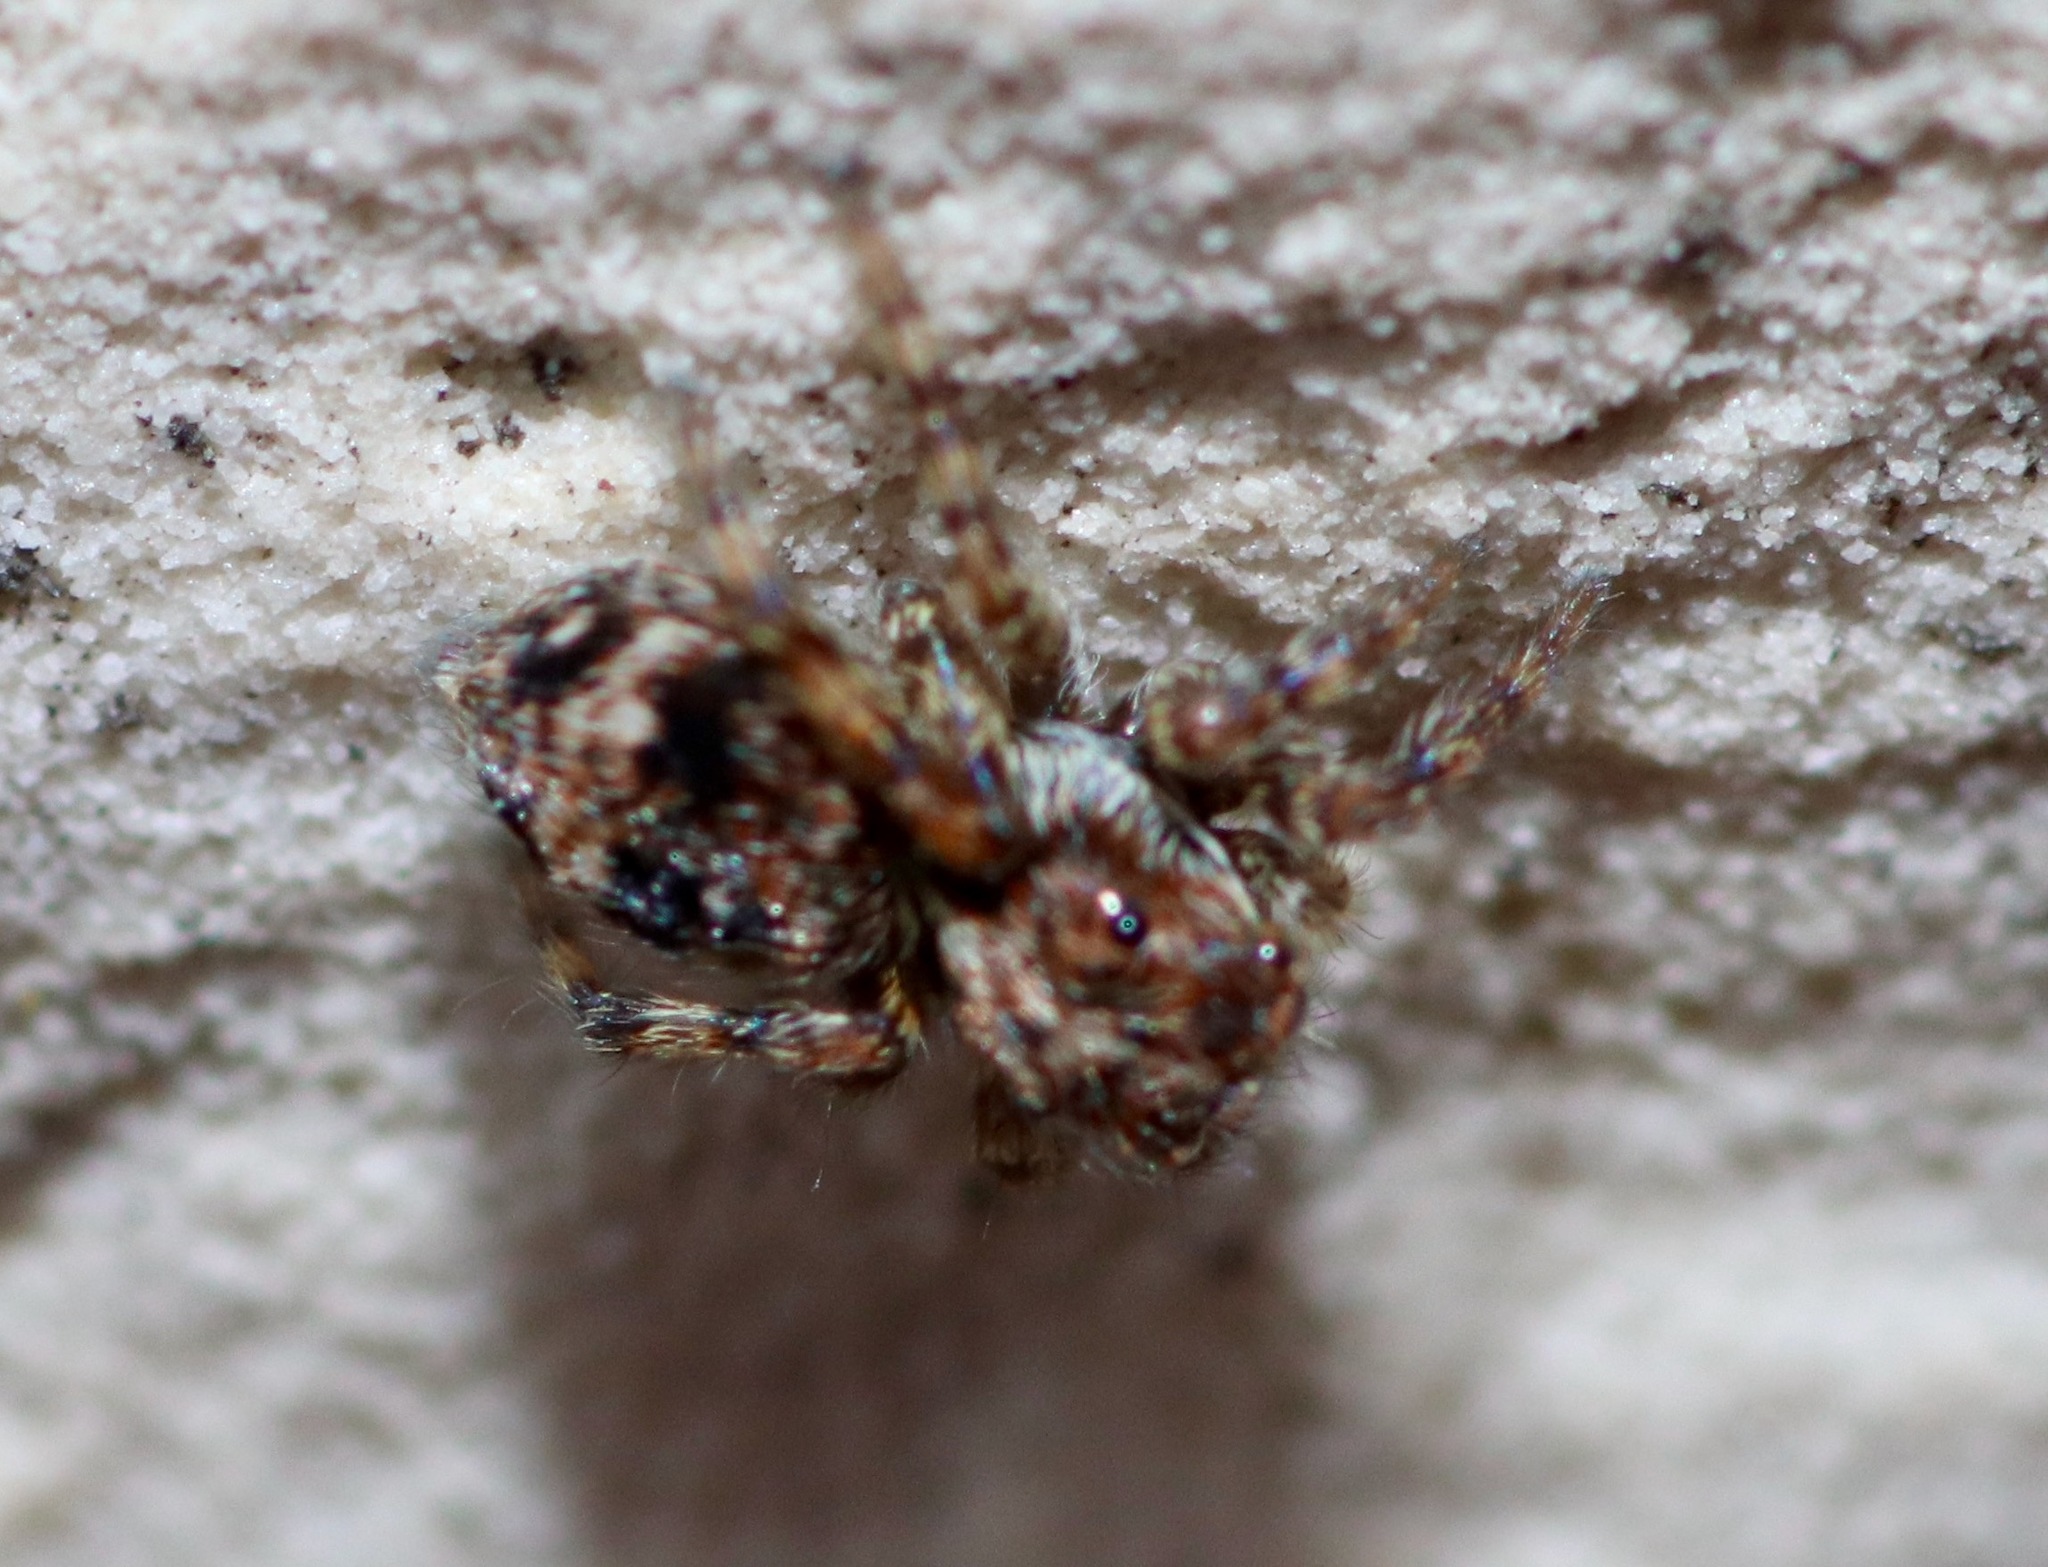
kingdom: Animalia
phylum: Arthropoda
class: Arachnida
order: Araneae
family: Salticidae
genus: Attulus
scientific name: Attulus fasciger
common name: Asiatic wall jumping spider
